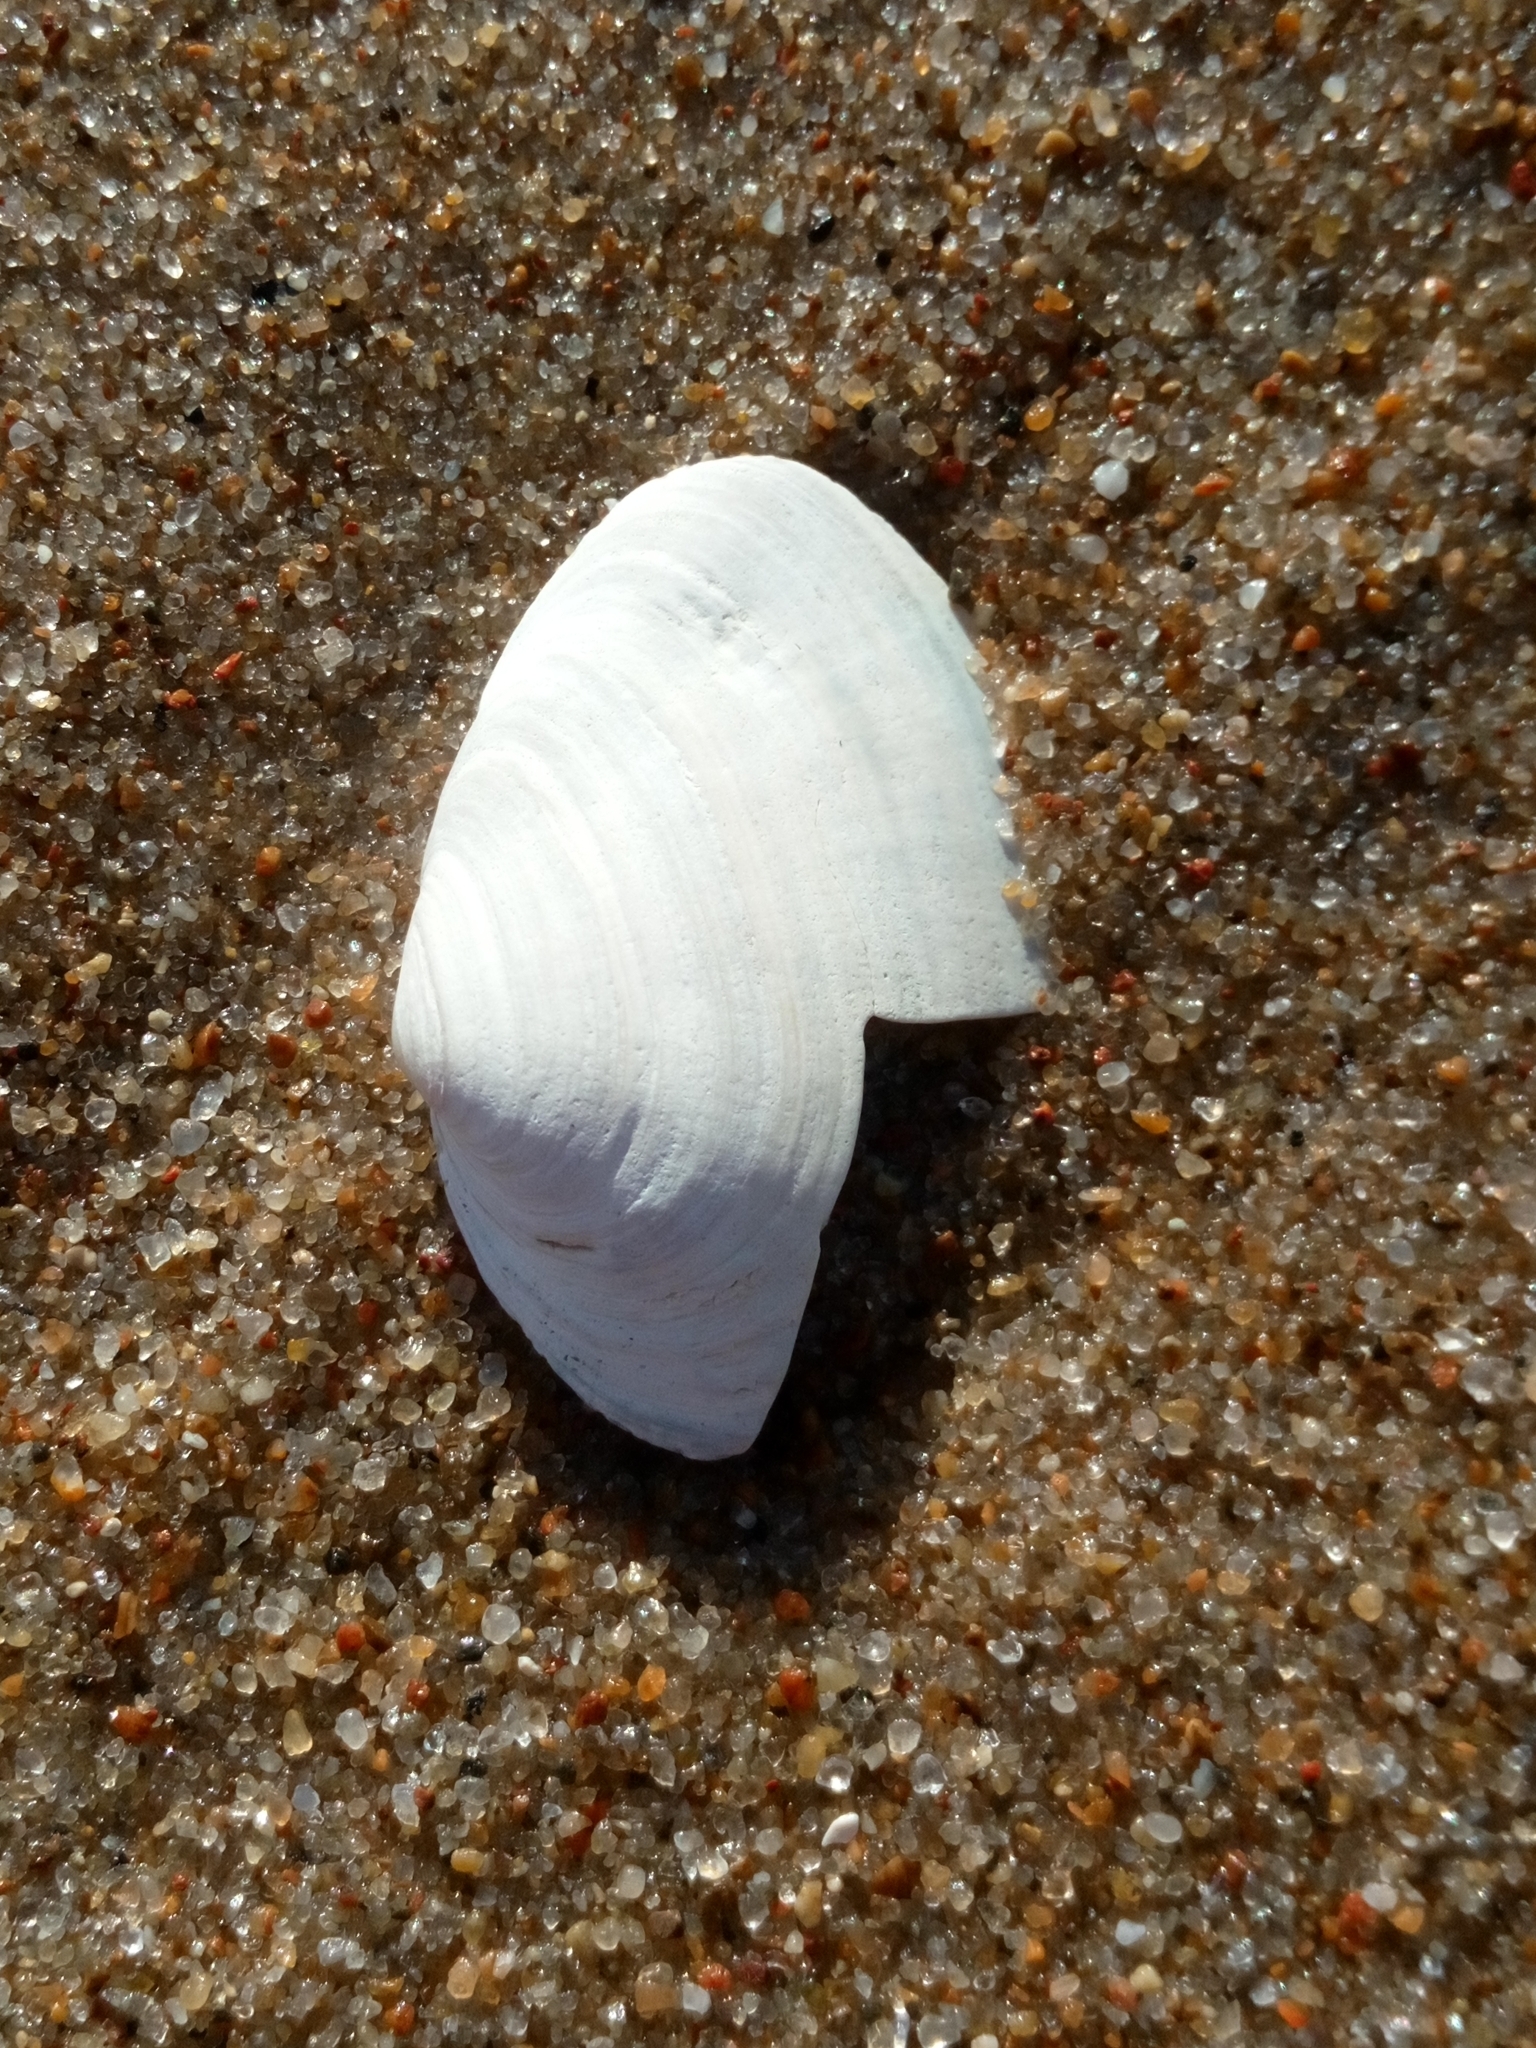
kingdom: Animalia
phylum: Mollusca
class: Bivalvia
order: Myida
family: Myidae
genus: Mya
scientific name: Mya arenaria
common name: Soft-shelled clam
